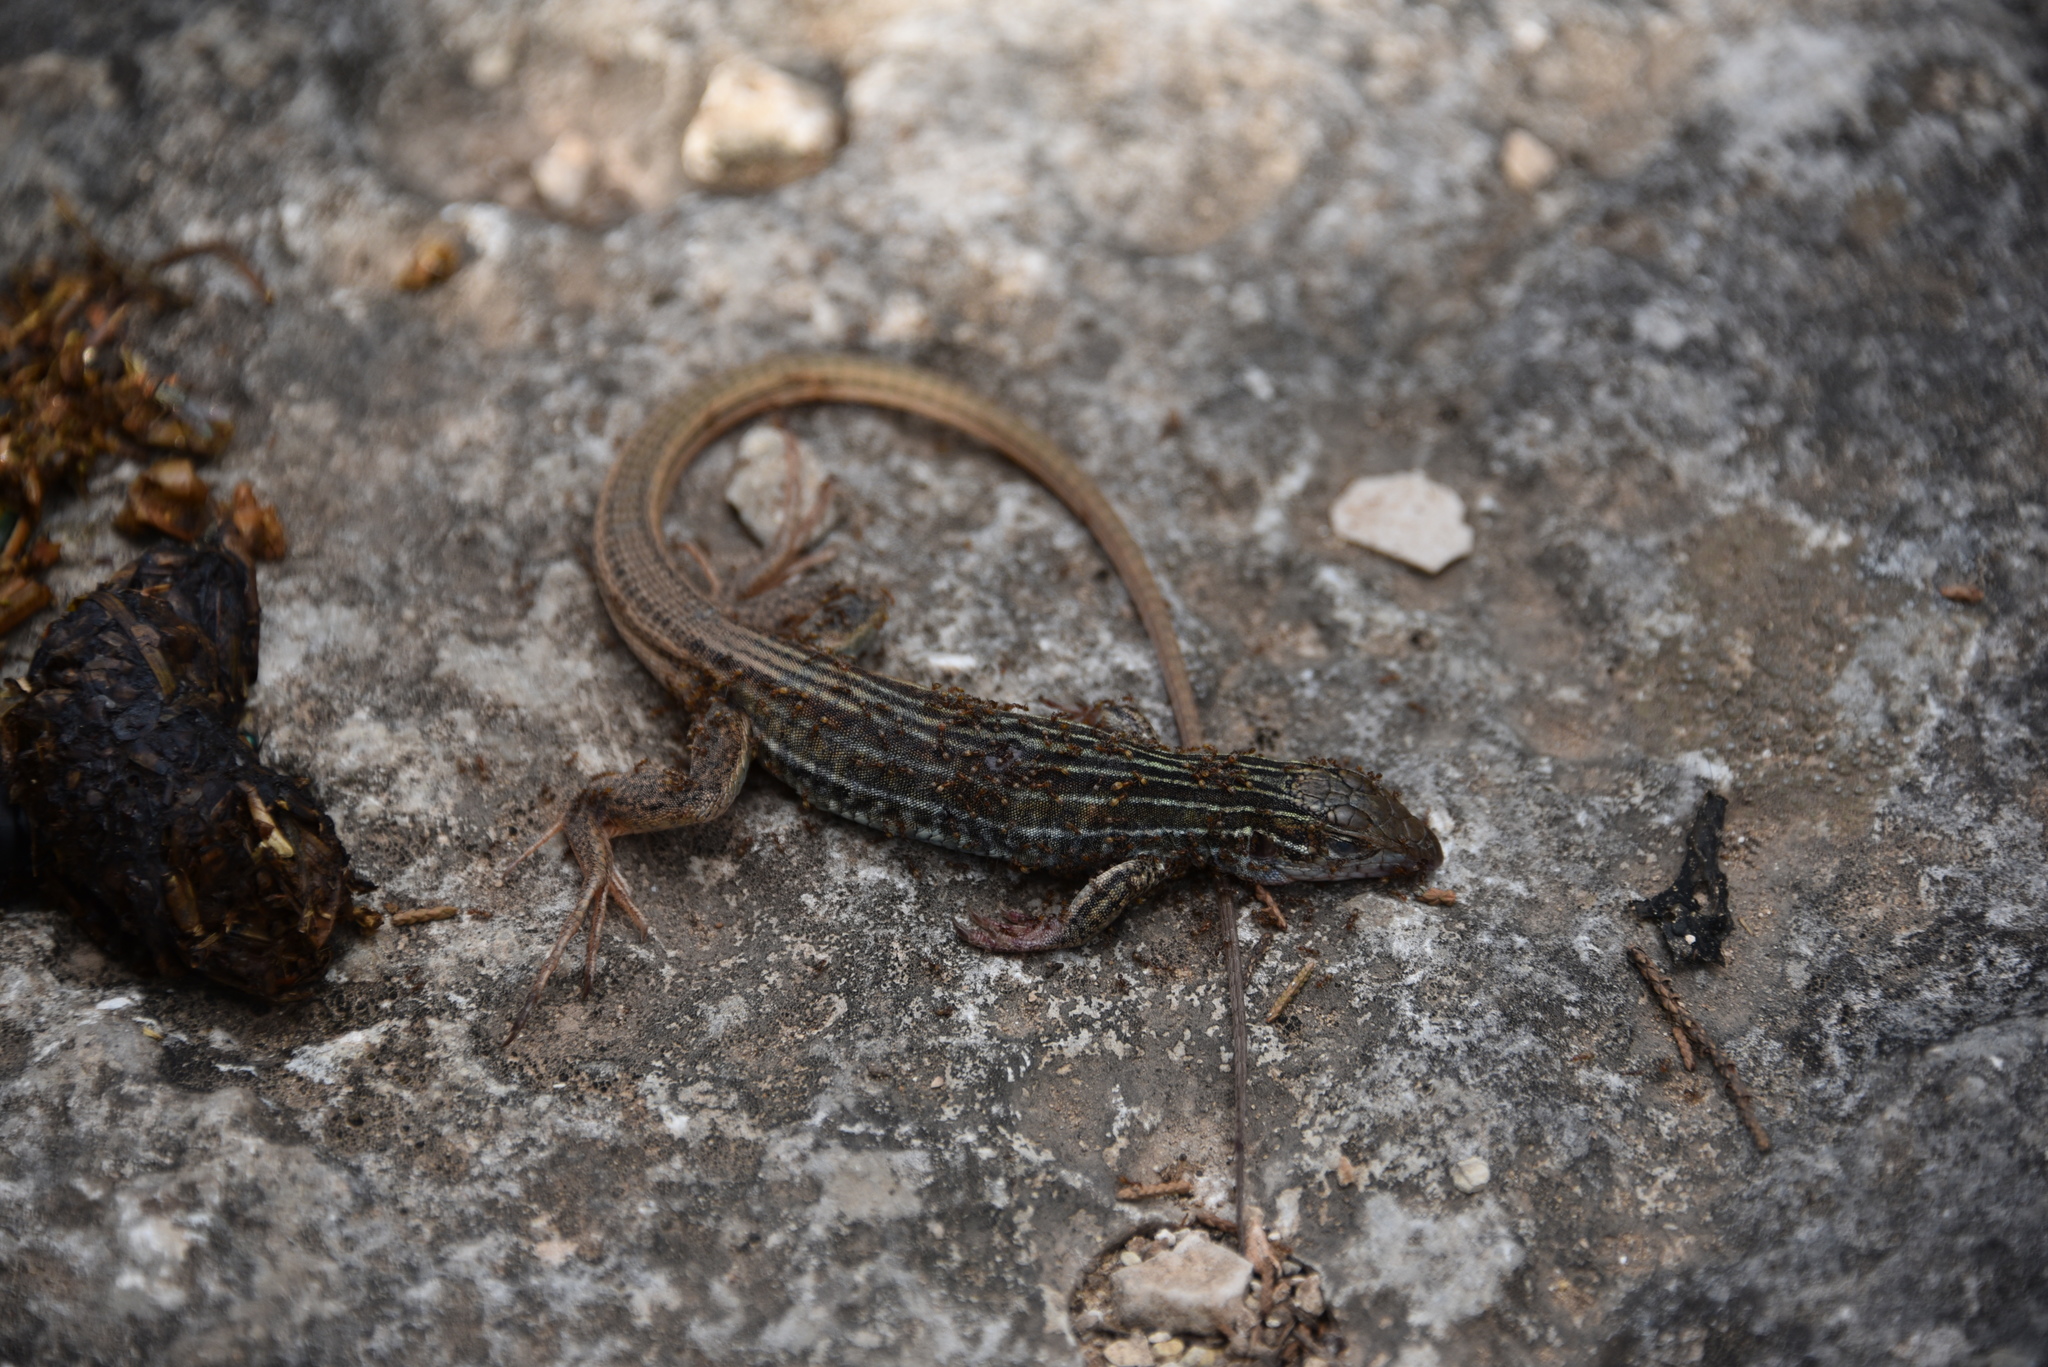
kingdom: Animalia
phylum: Chordata
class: Squamata
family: Teiidae
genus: Aspidoscelis
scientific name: Aspidoscelis gularis
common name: Eastern spotted whiptail
